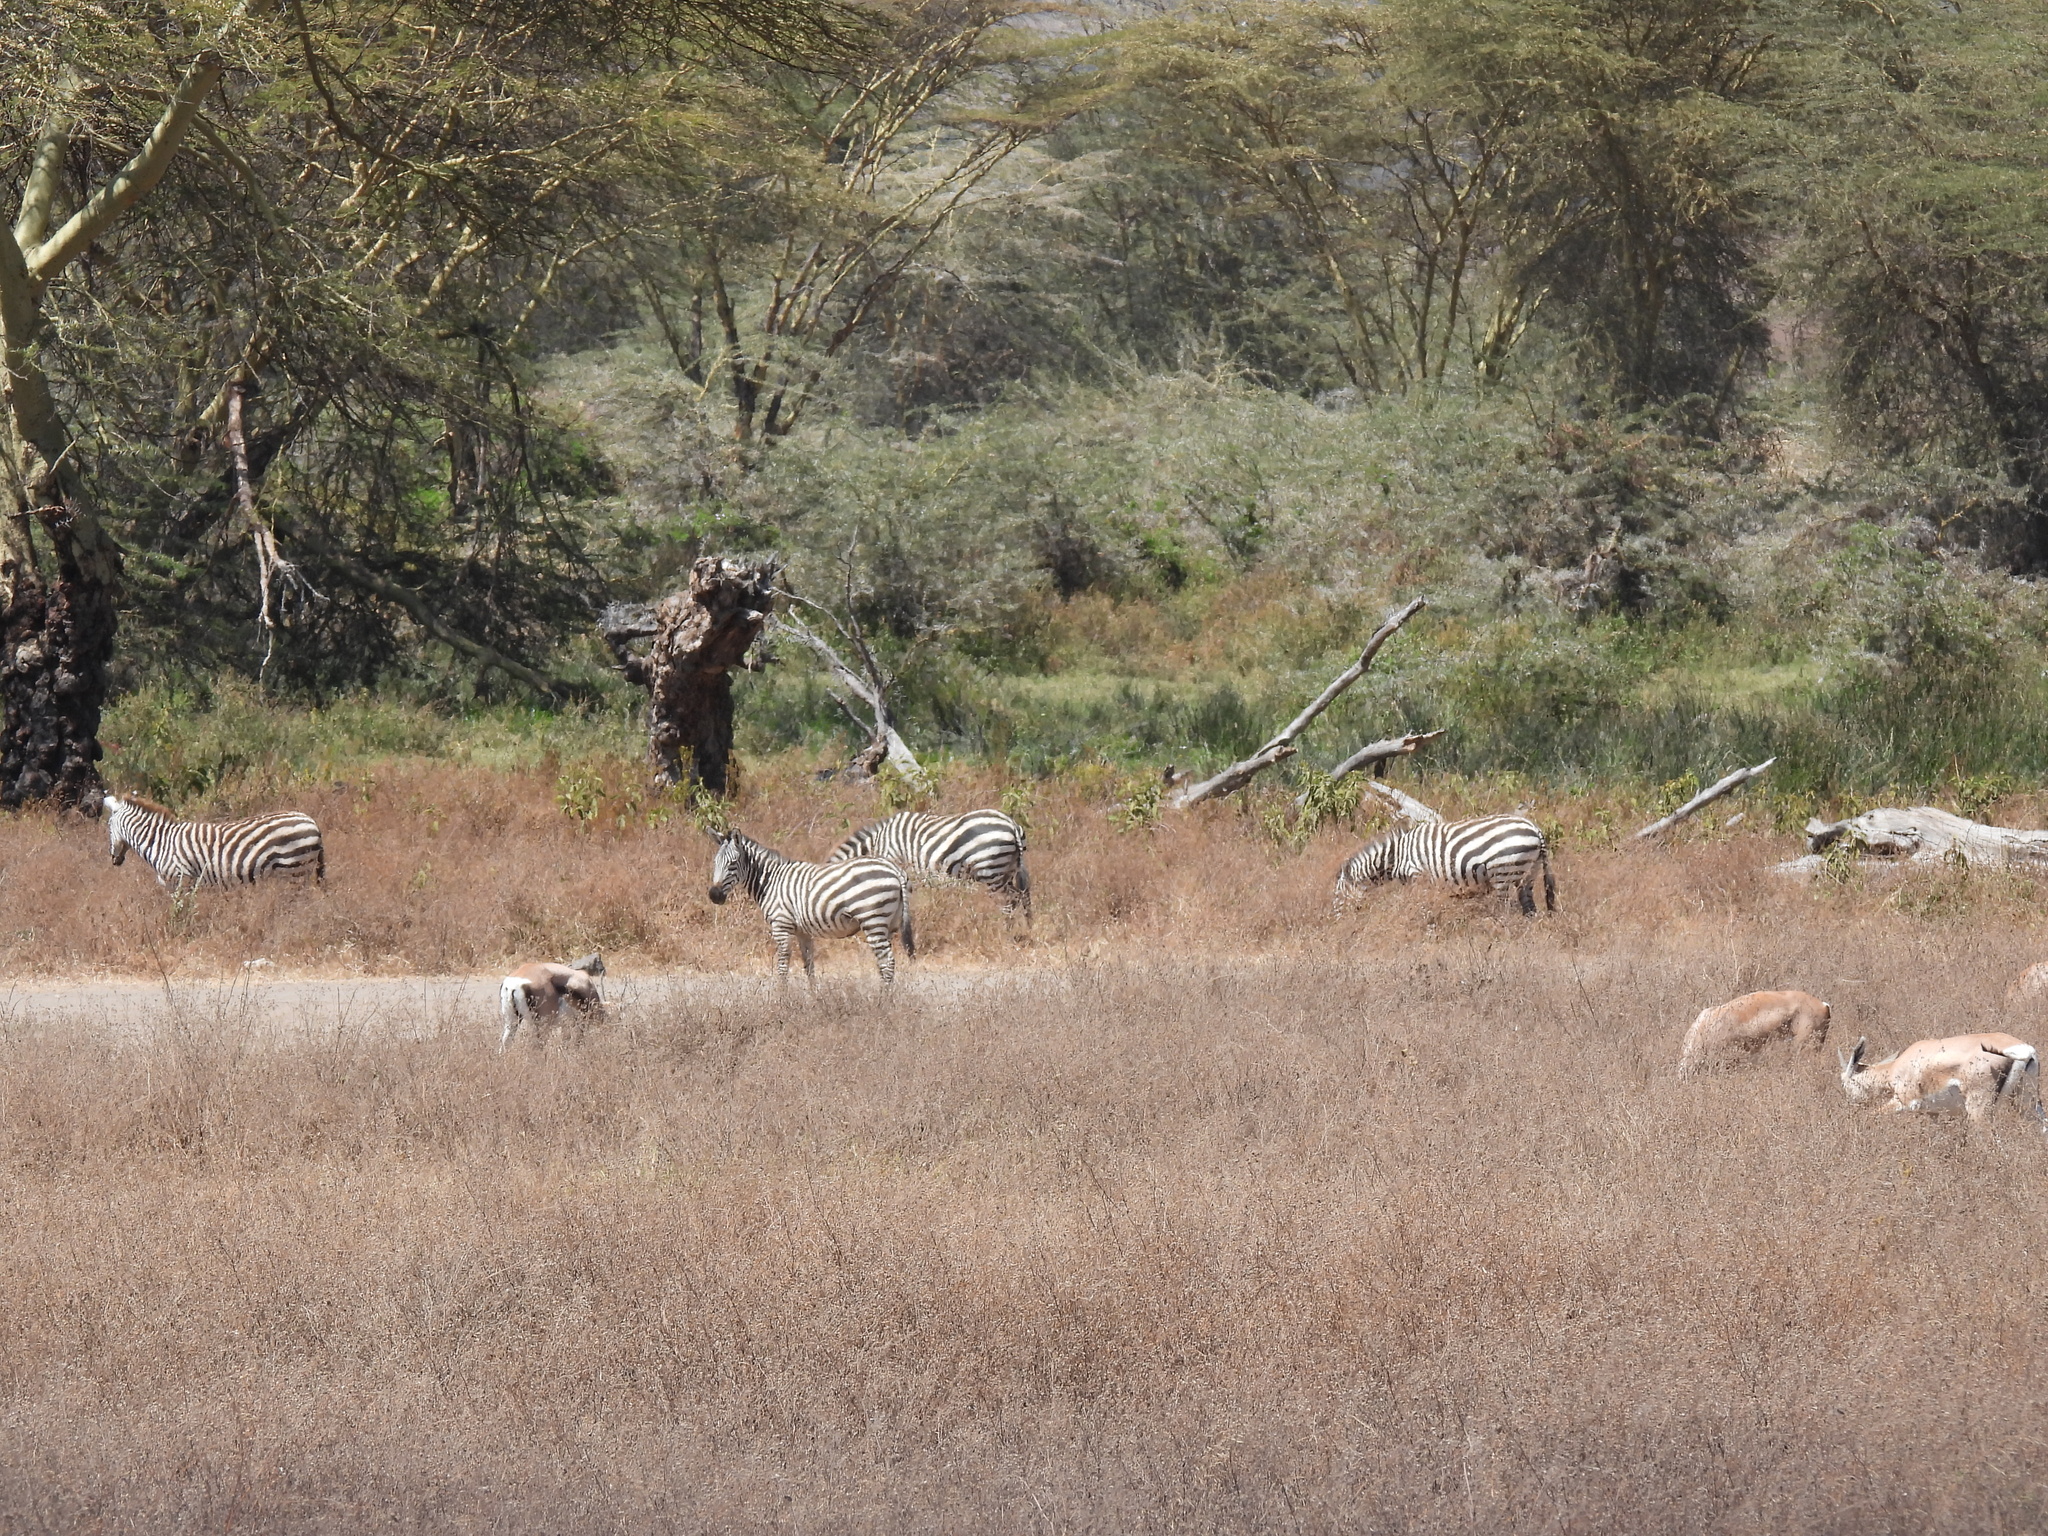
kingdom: Animalia
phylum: Chordata
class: Mammalia
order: Perissodactyla
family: Equidae
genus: Equus
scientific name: Equus quagga
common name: Plains zebra
